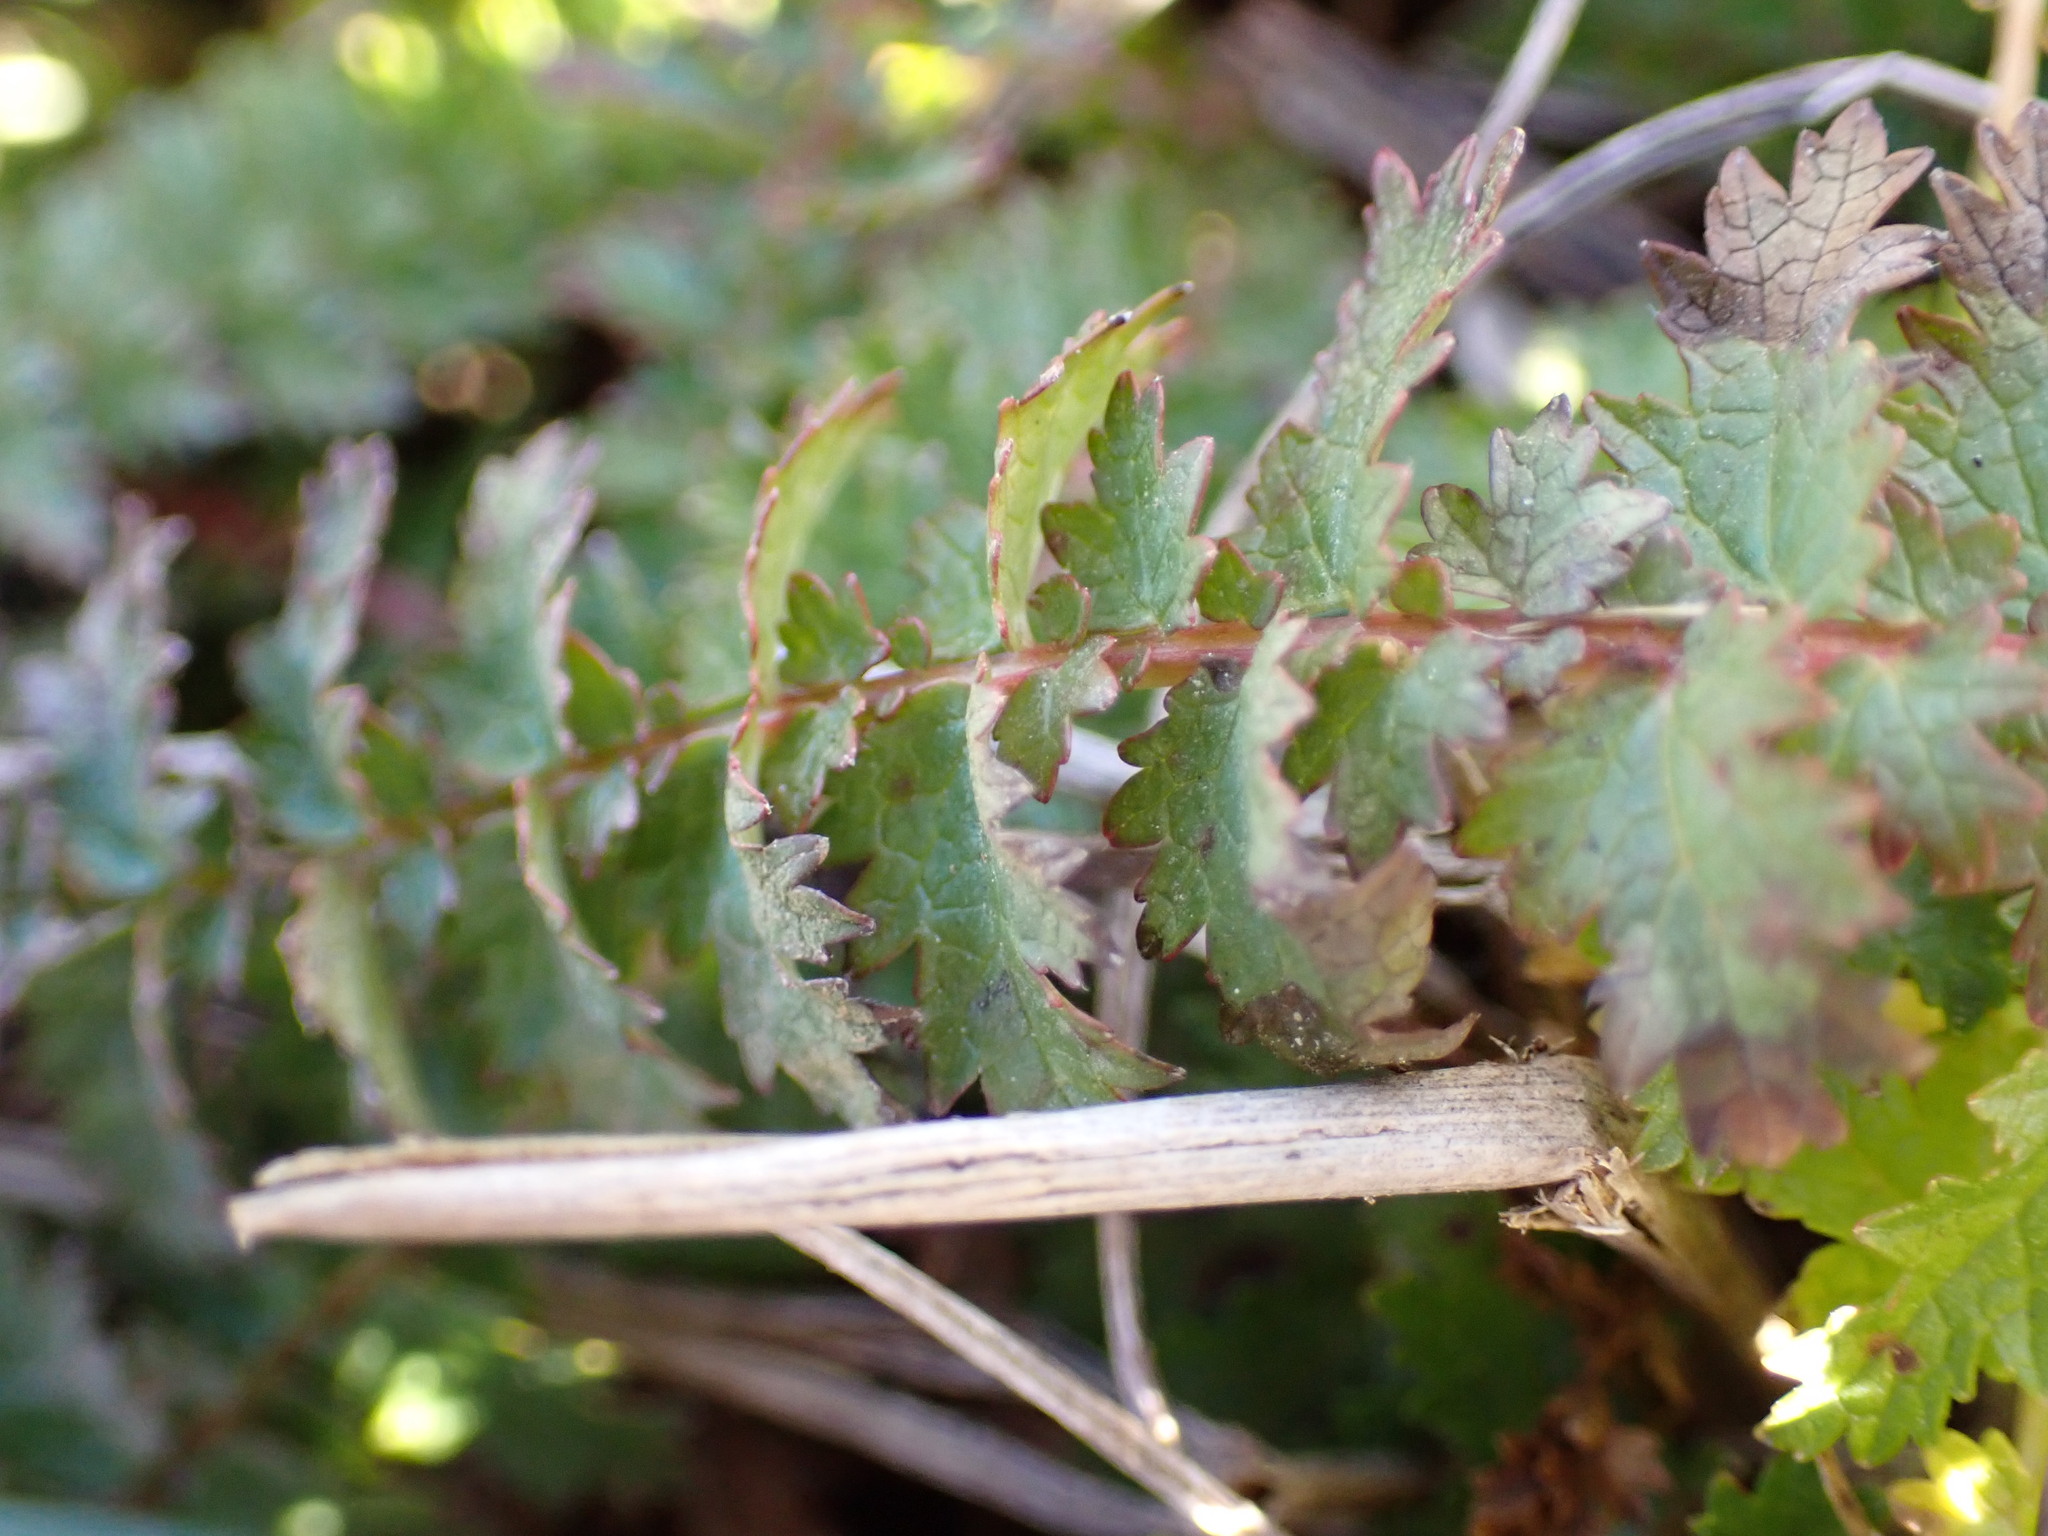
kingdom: Plantae
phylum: Tracheophyta
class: Magnoliopsida
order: Rosales
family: Rosaceae
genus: Filipendula
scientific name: Filipendula vulgaris
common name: Dropwort
